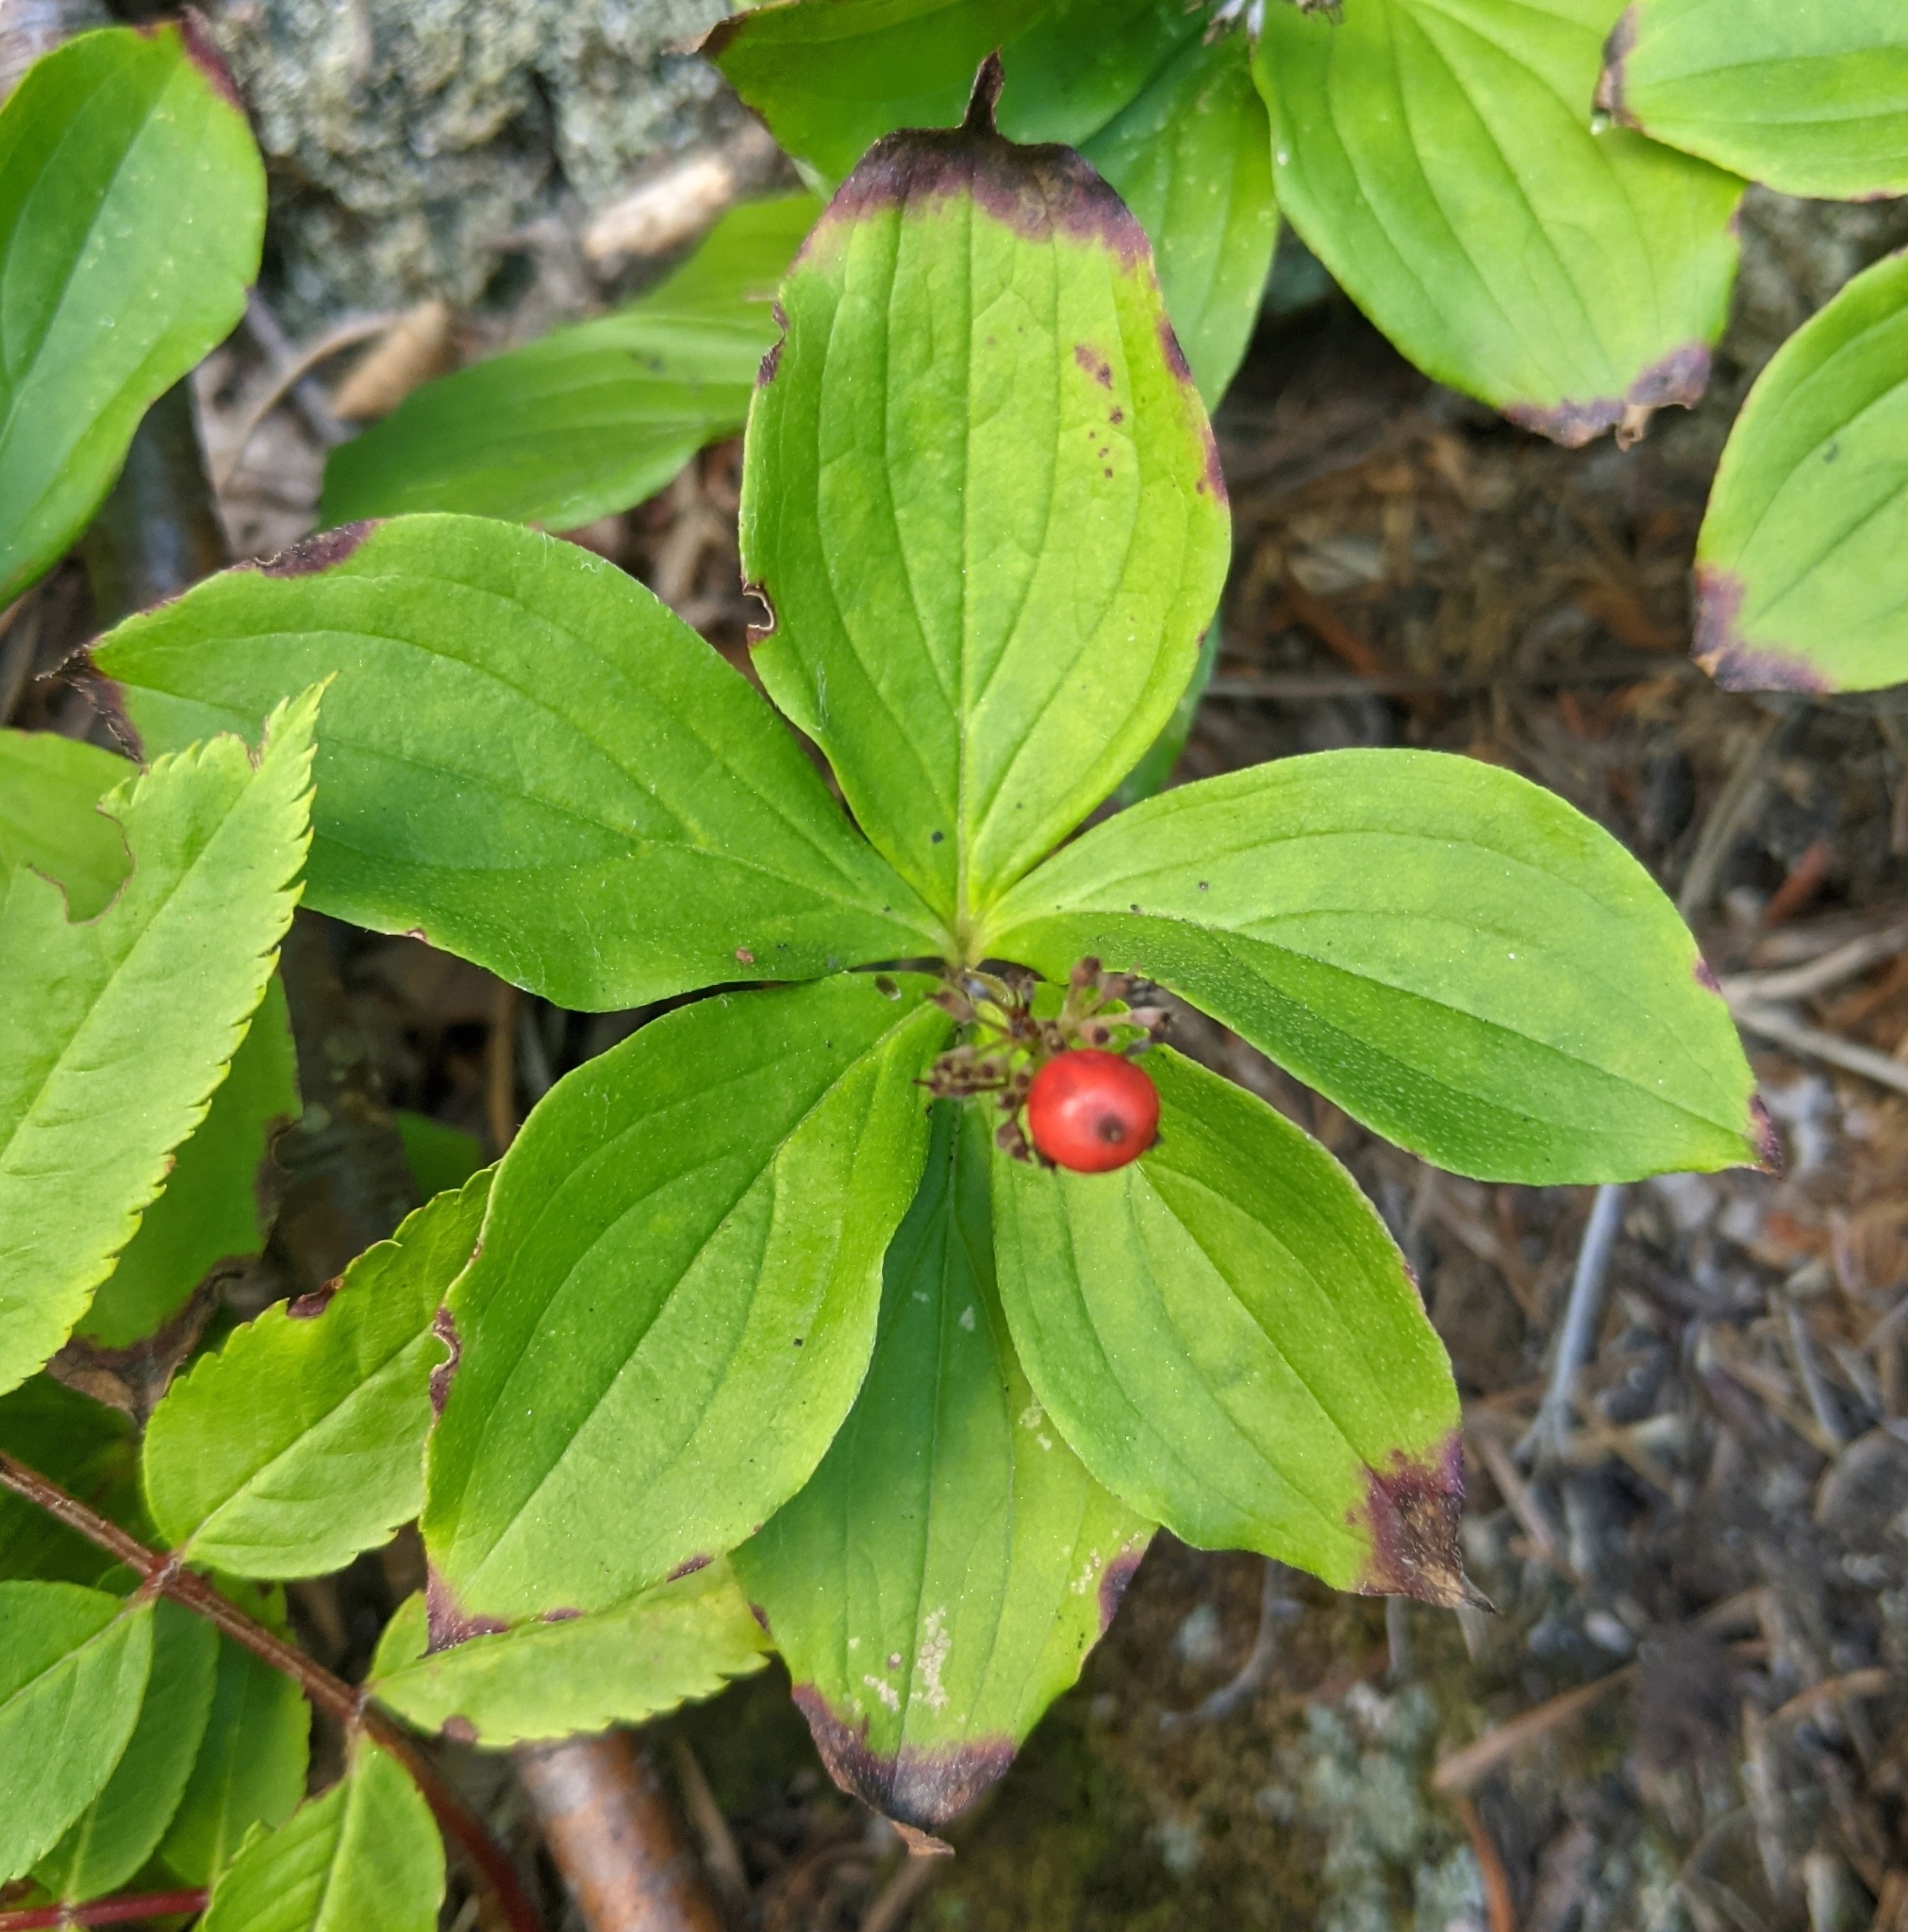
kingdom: Plantae
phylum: Tracheophyta
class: Magnoliopsida
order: Cornales
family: Cornaceae
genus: Cornus
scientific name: Cornus canadensis
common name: Creeping dogwood
